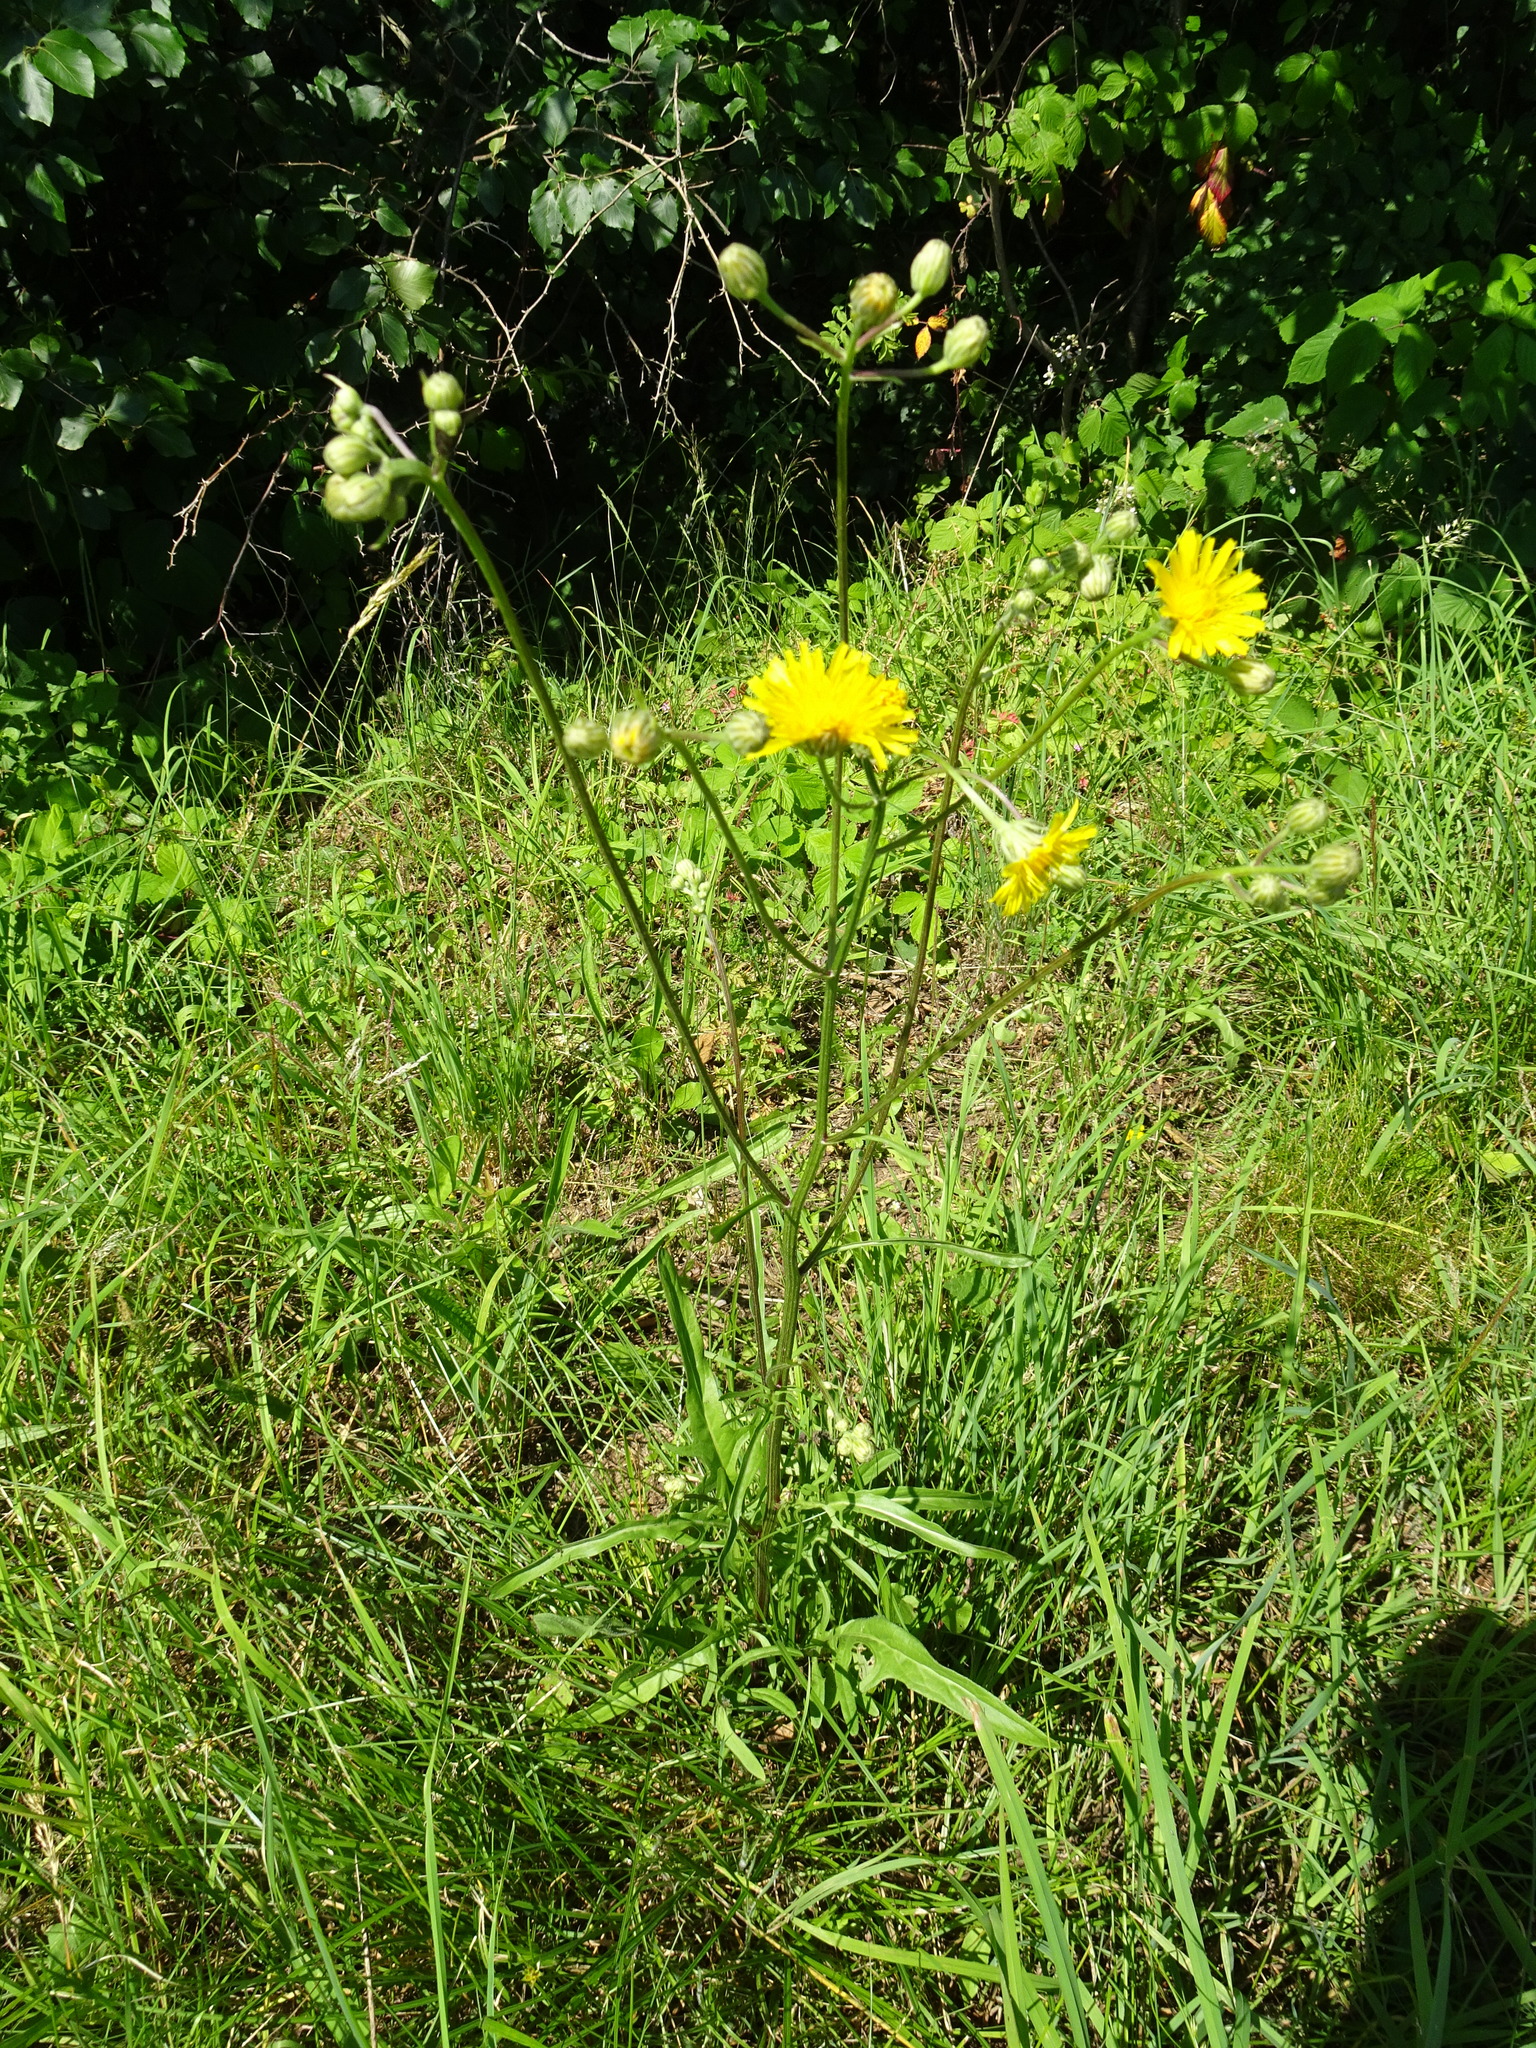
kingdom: Plantae
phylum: Tracheophyta
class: Magnoliopsida
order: Asterales
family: Asteraceae
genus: Crepis
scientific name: Crepis biennis
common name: Rough hawk's-beard
